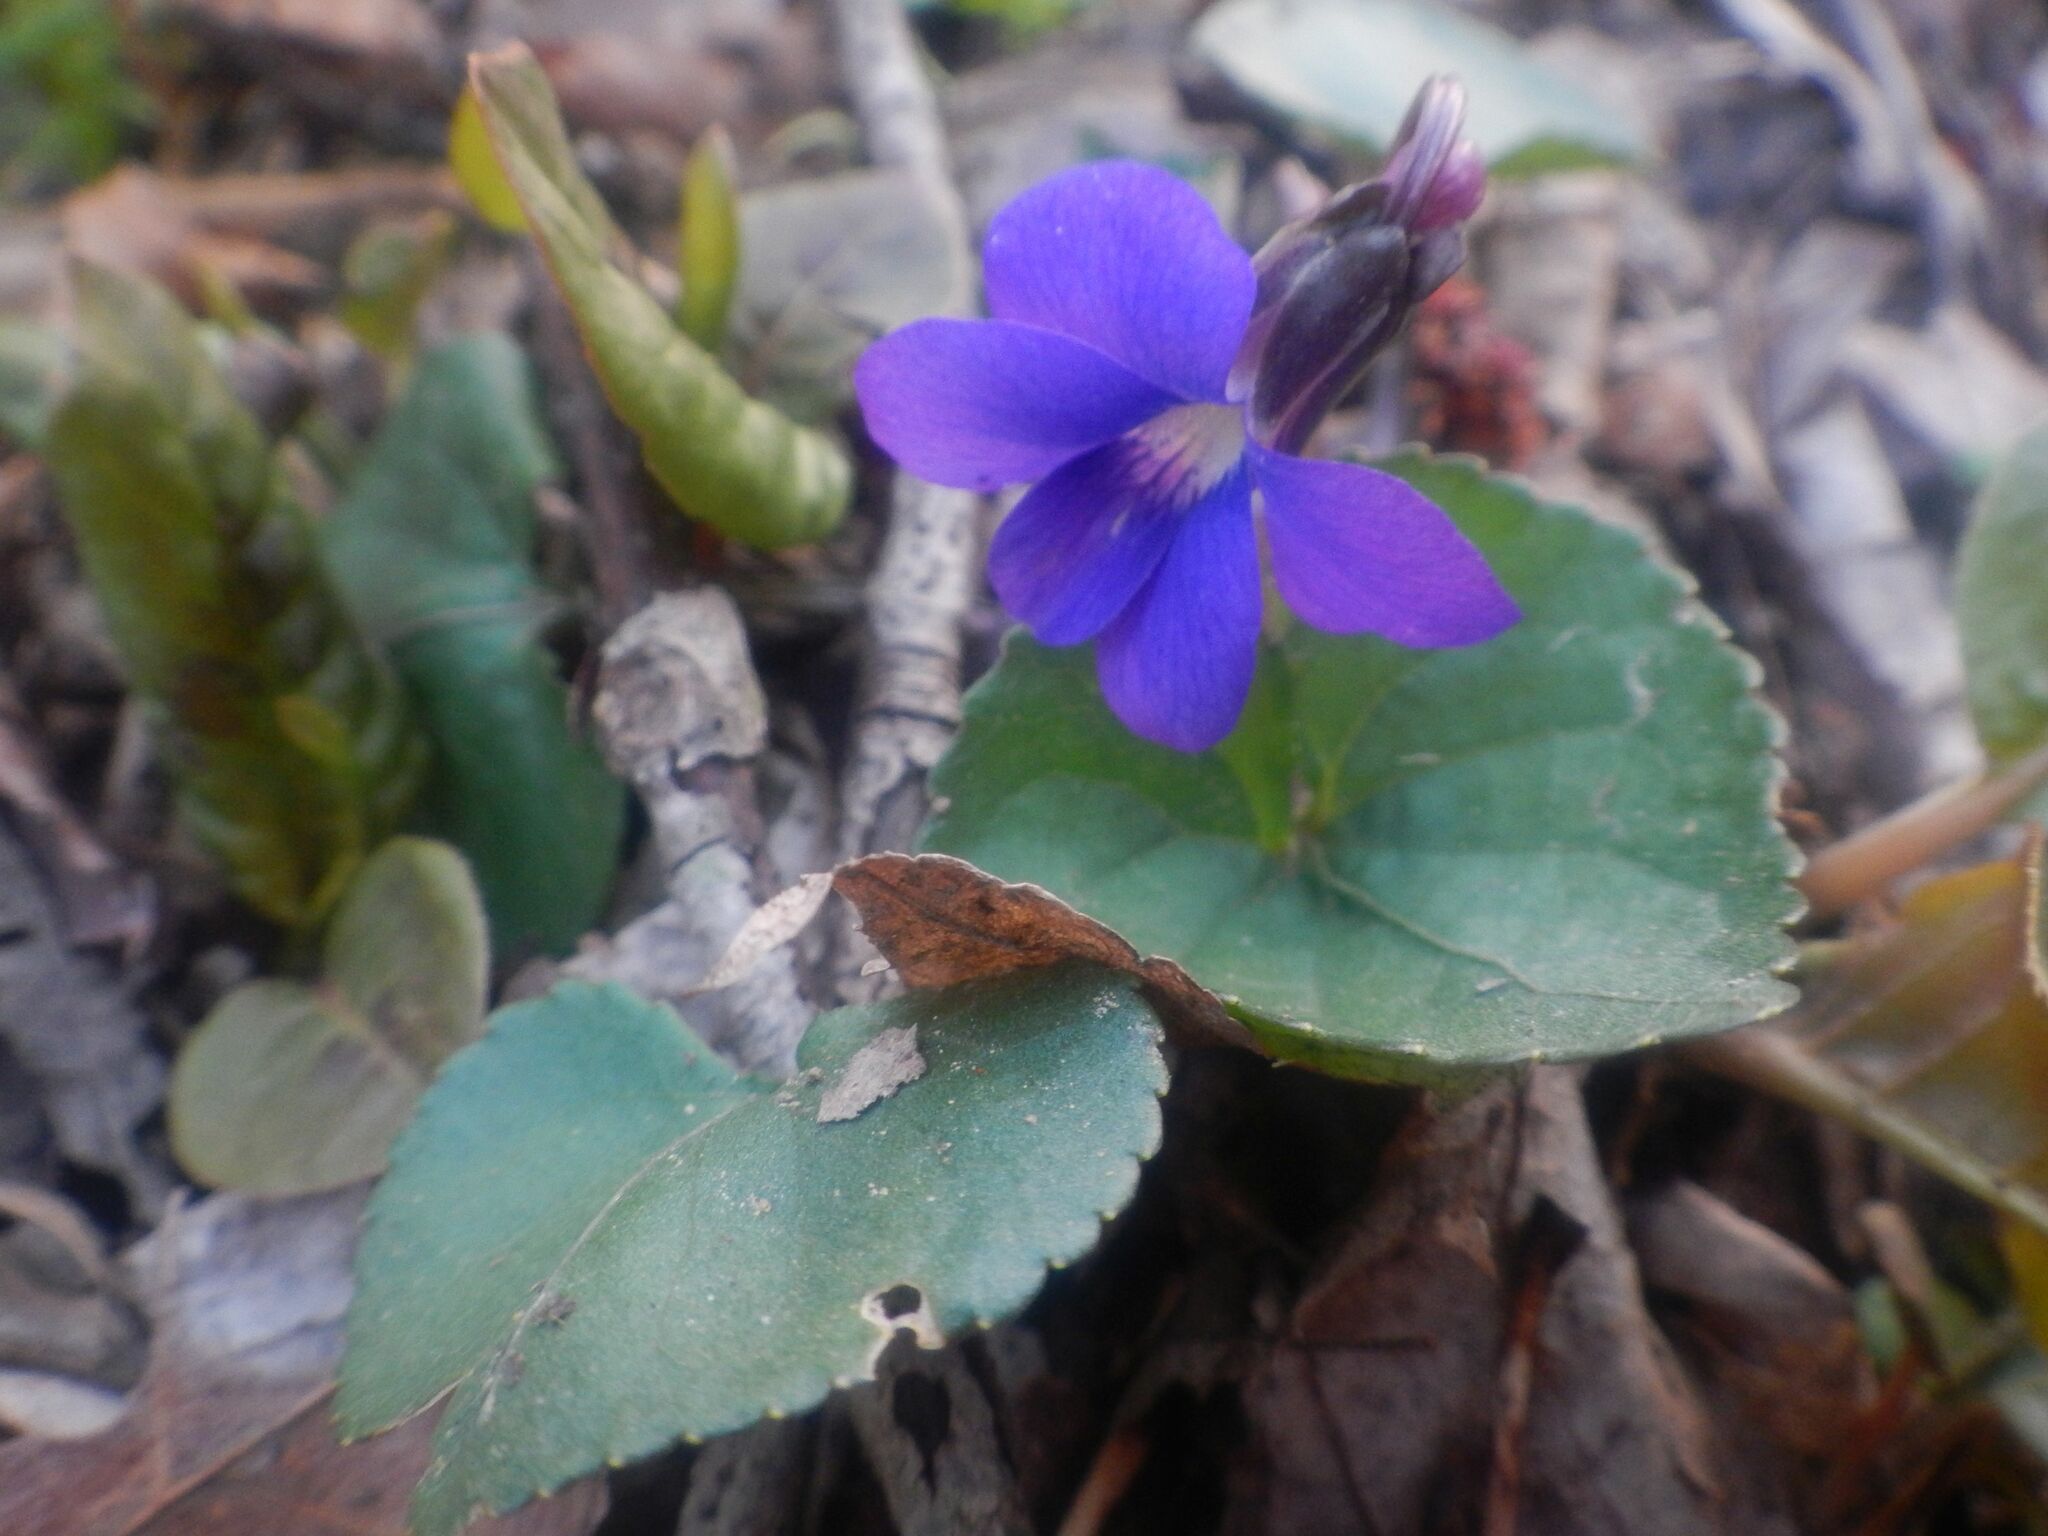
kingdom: Plantae
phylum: Tracheophyta
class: Magnoliopsida
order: Malpighiales
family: Violaceae
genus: Viola
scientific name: Viola sororia
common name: Dooryard violet
